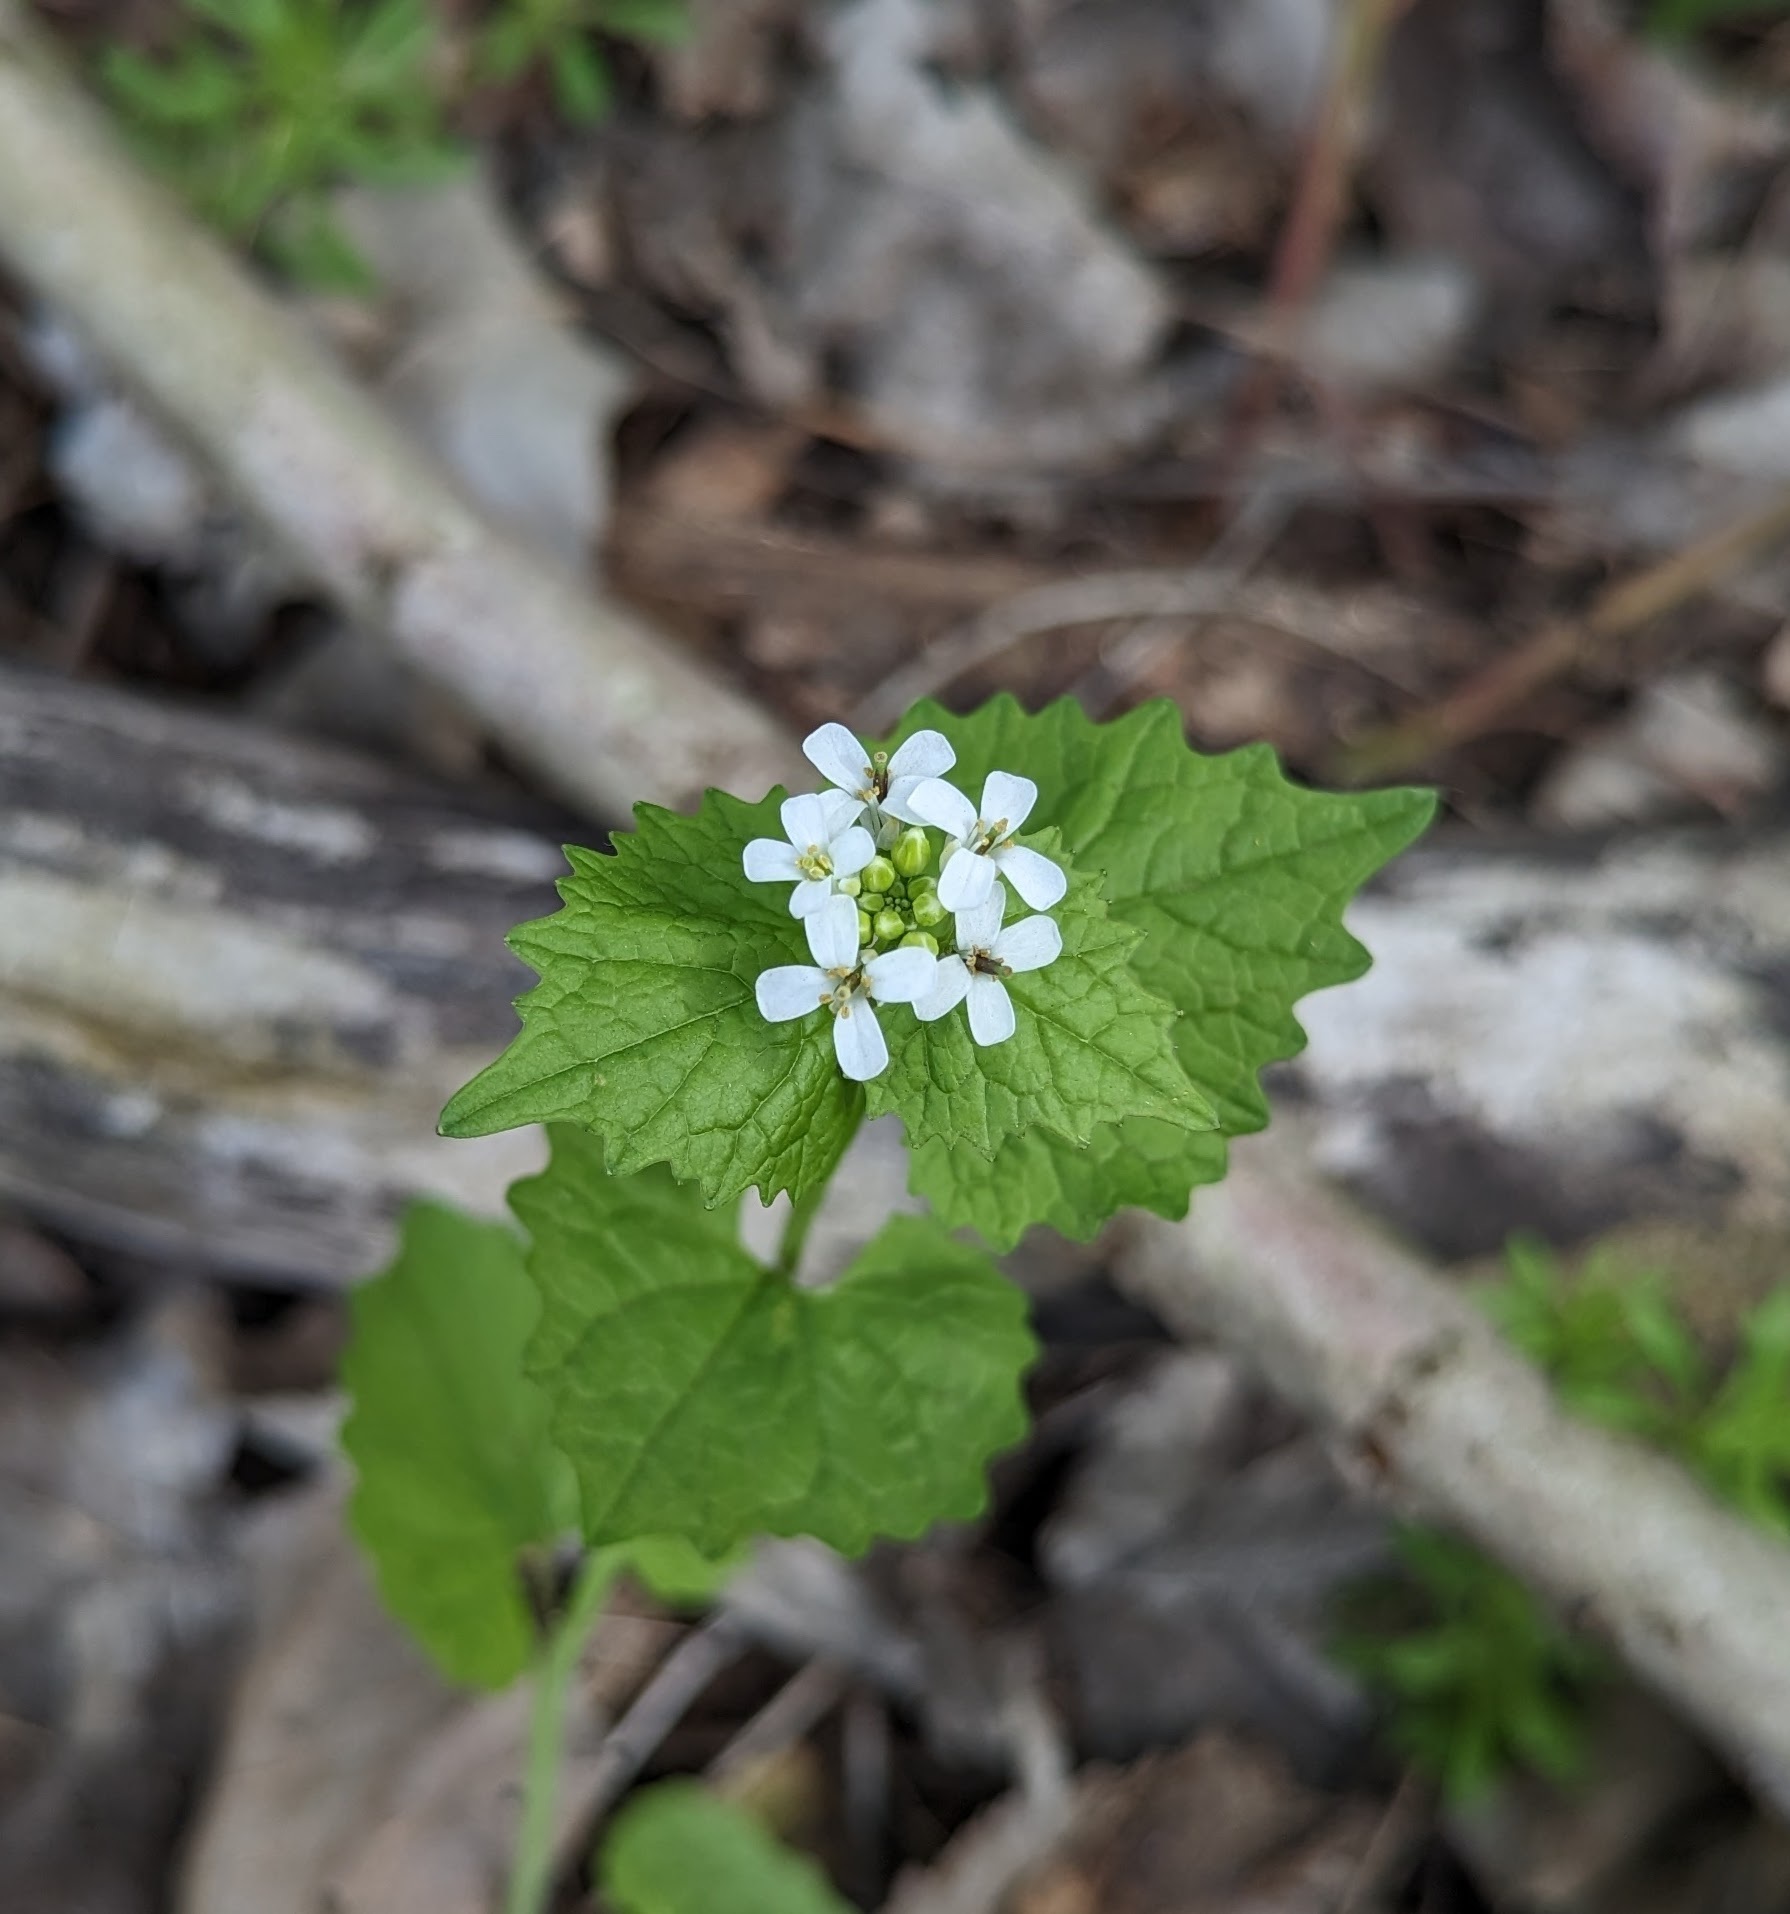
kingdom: Plantae
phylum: Tracheophyta
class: Magnoliopsida
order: Brassicales
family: Brassicaceae
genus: Alliaria
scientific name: Alliaria petiolata
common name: Garlic mustard
